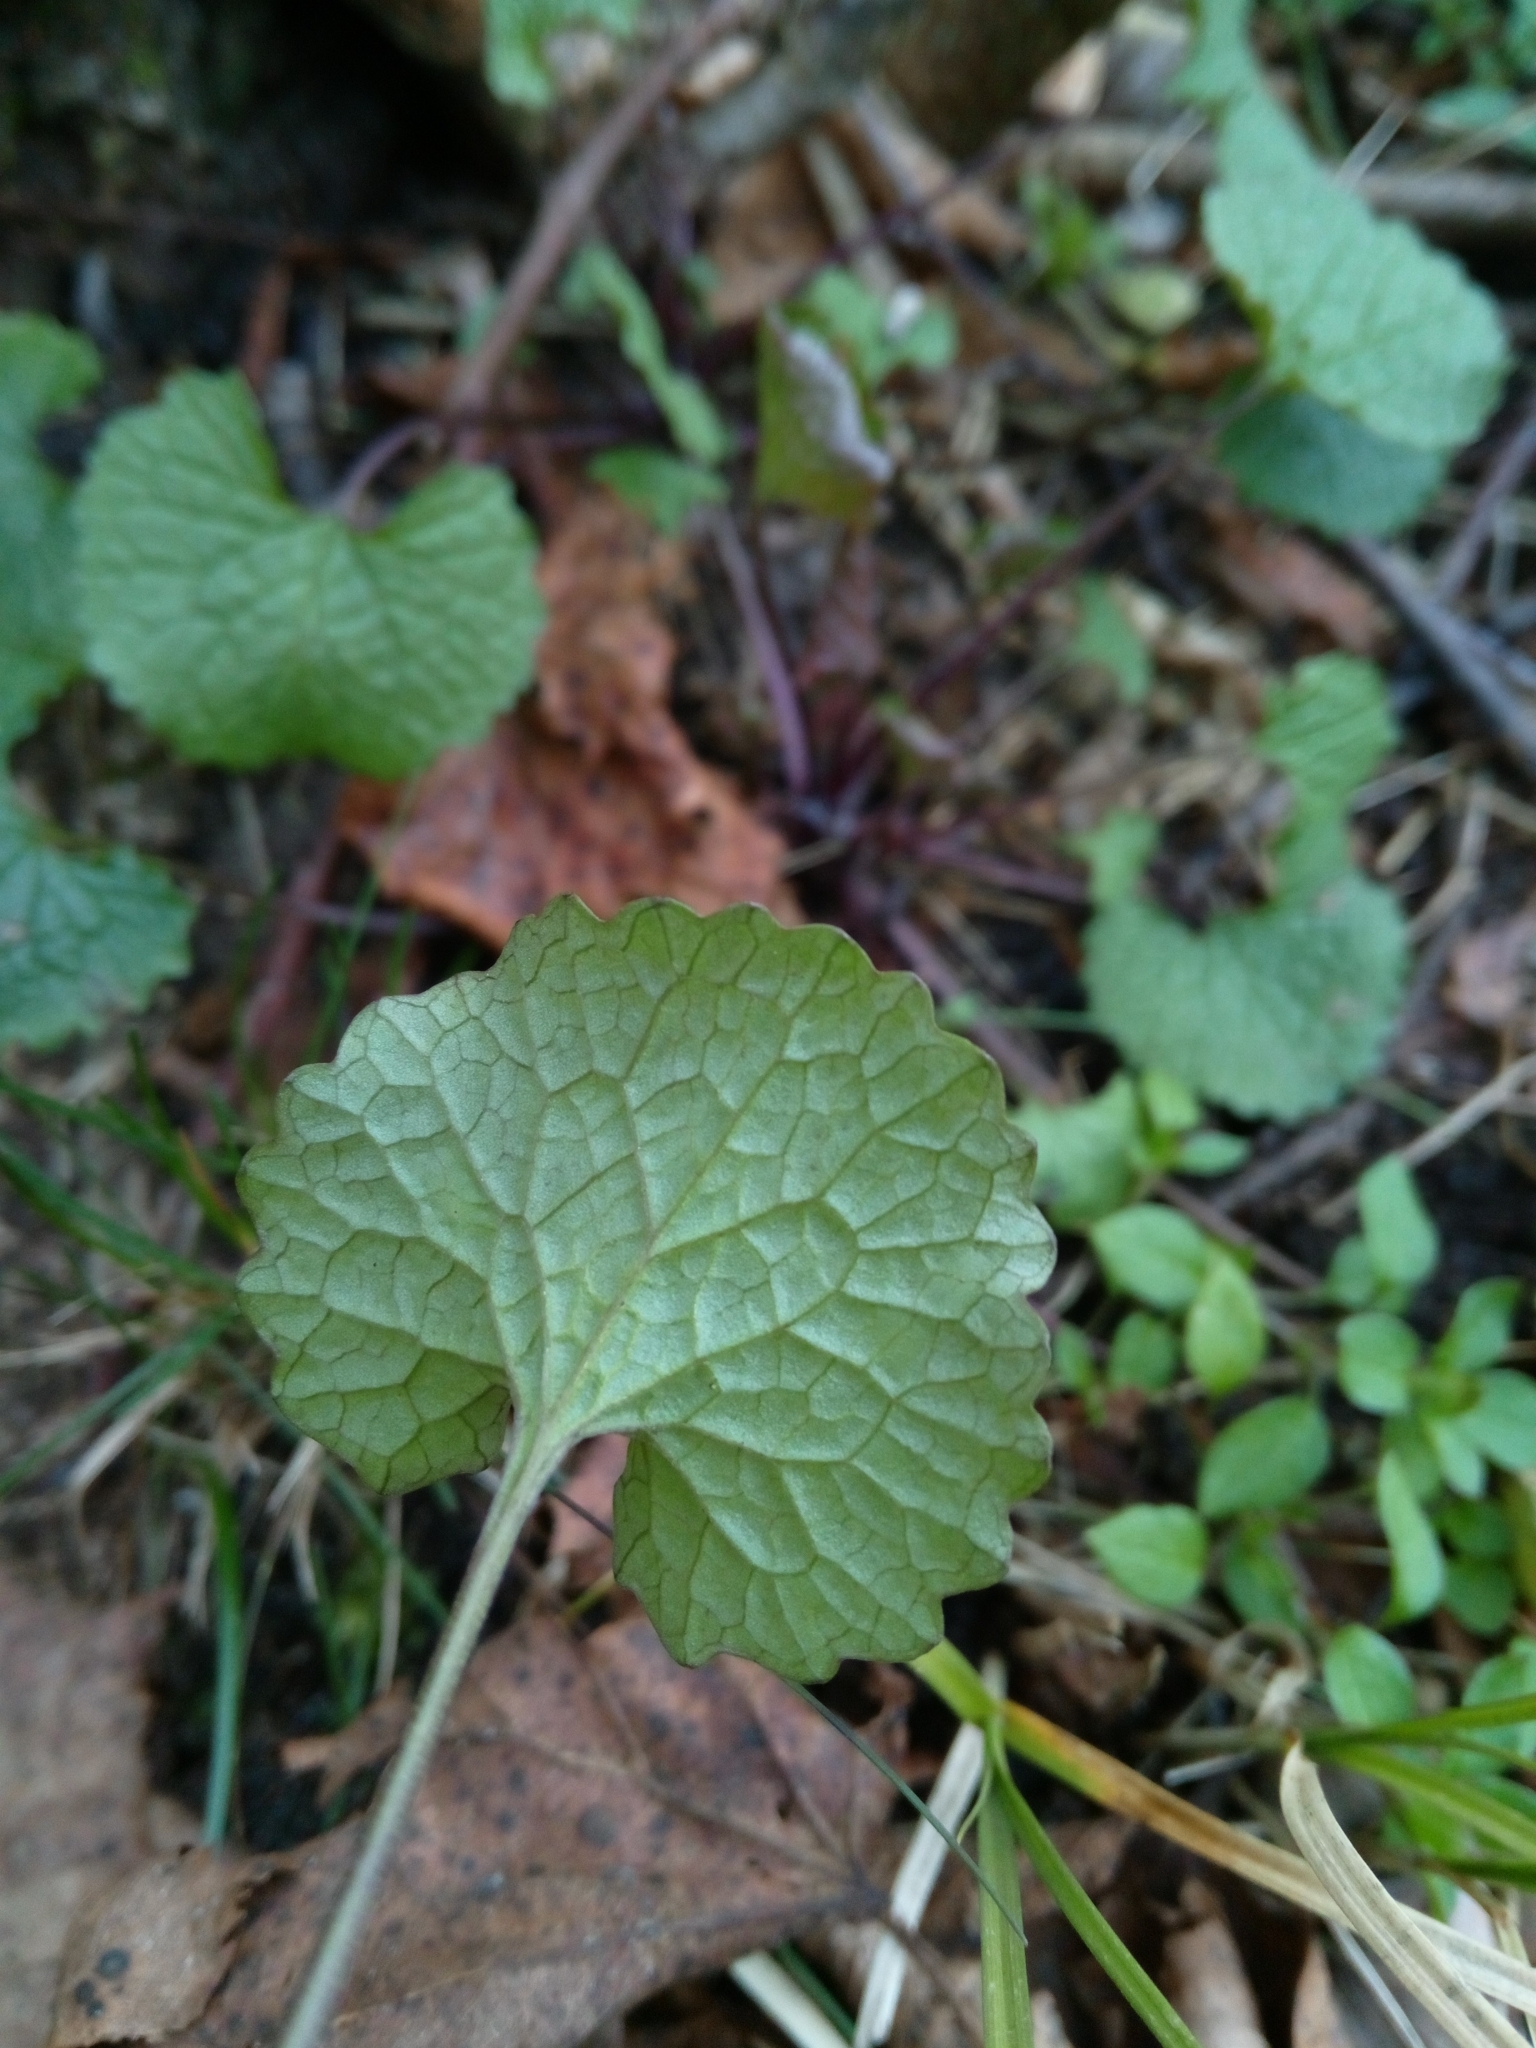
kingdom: Plantae
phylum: Tracheophyta
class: Magnoliopsida
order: Brassicales
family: Brassicaceae
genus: Alliaria
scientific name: Alliaria petiolata
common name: Garlic mustard
